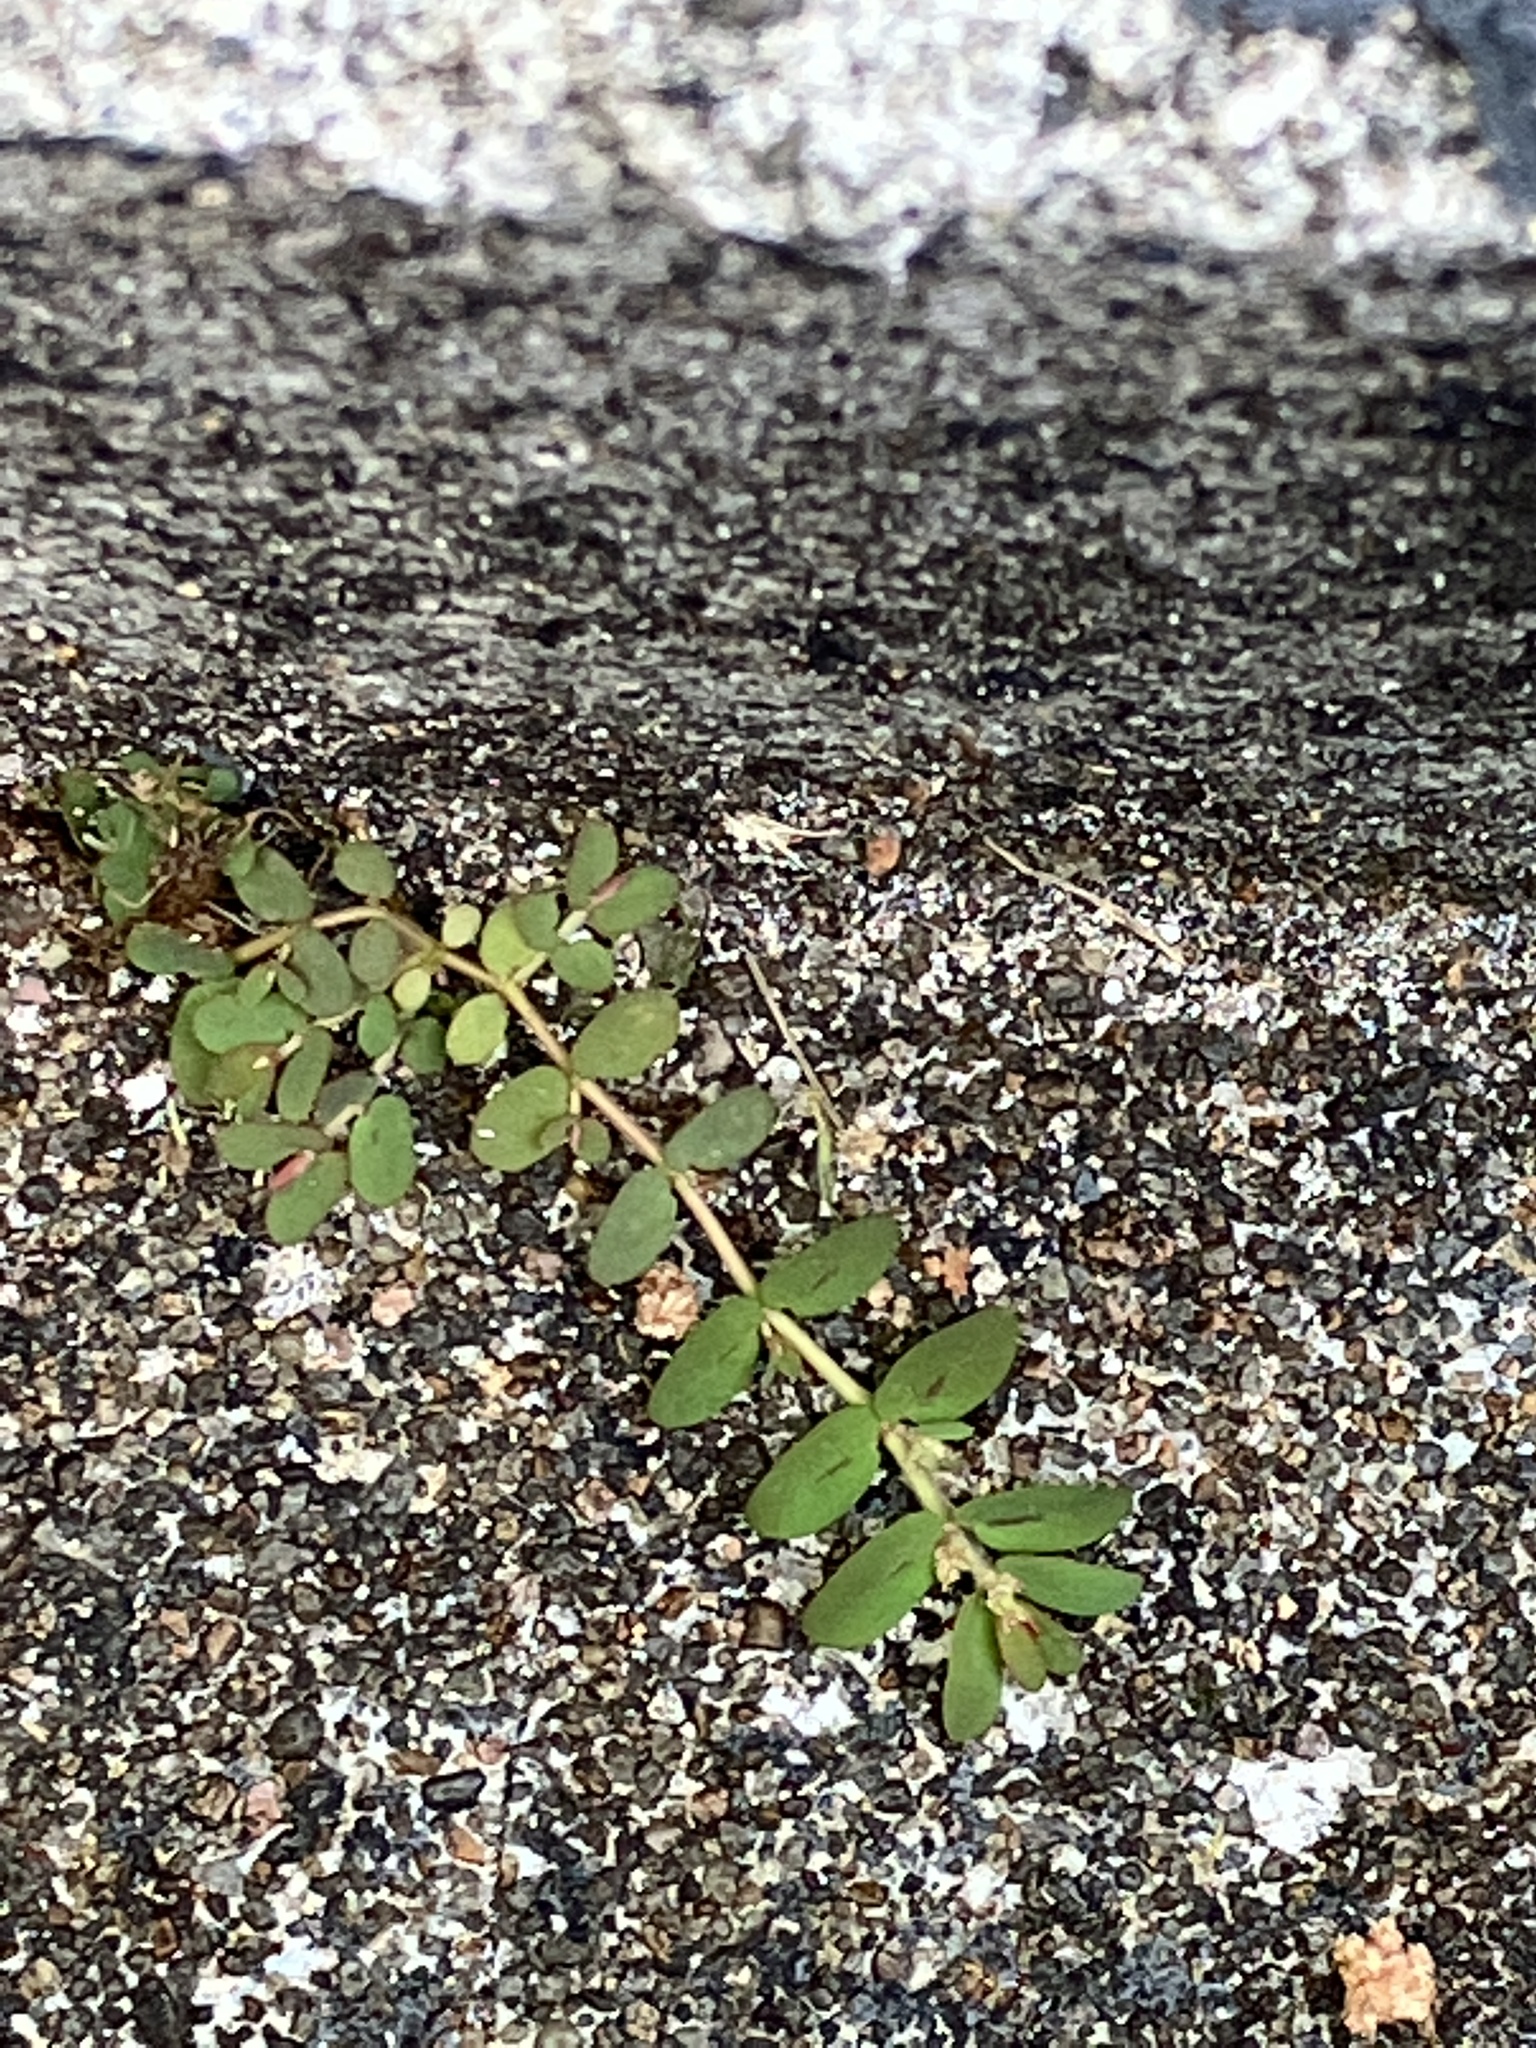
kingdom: Plantae
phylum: Tracheophyta
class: Magnoliopsida
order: Malpighiales
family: Euphorbiaceae
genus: Euphorbia
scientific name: Euphorbia thymifolia
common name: Gulf sandmat
